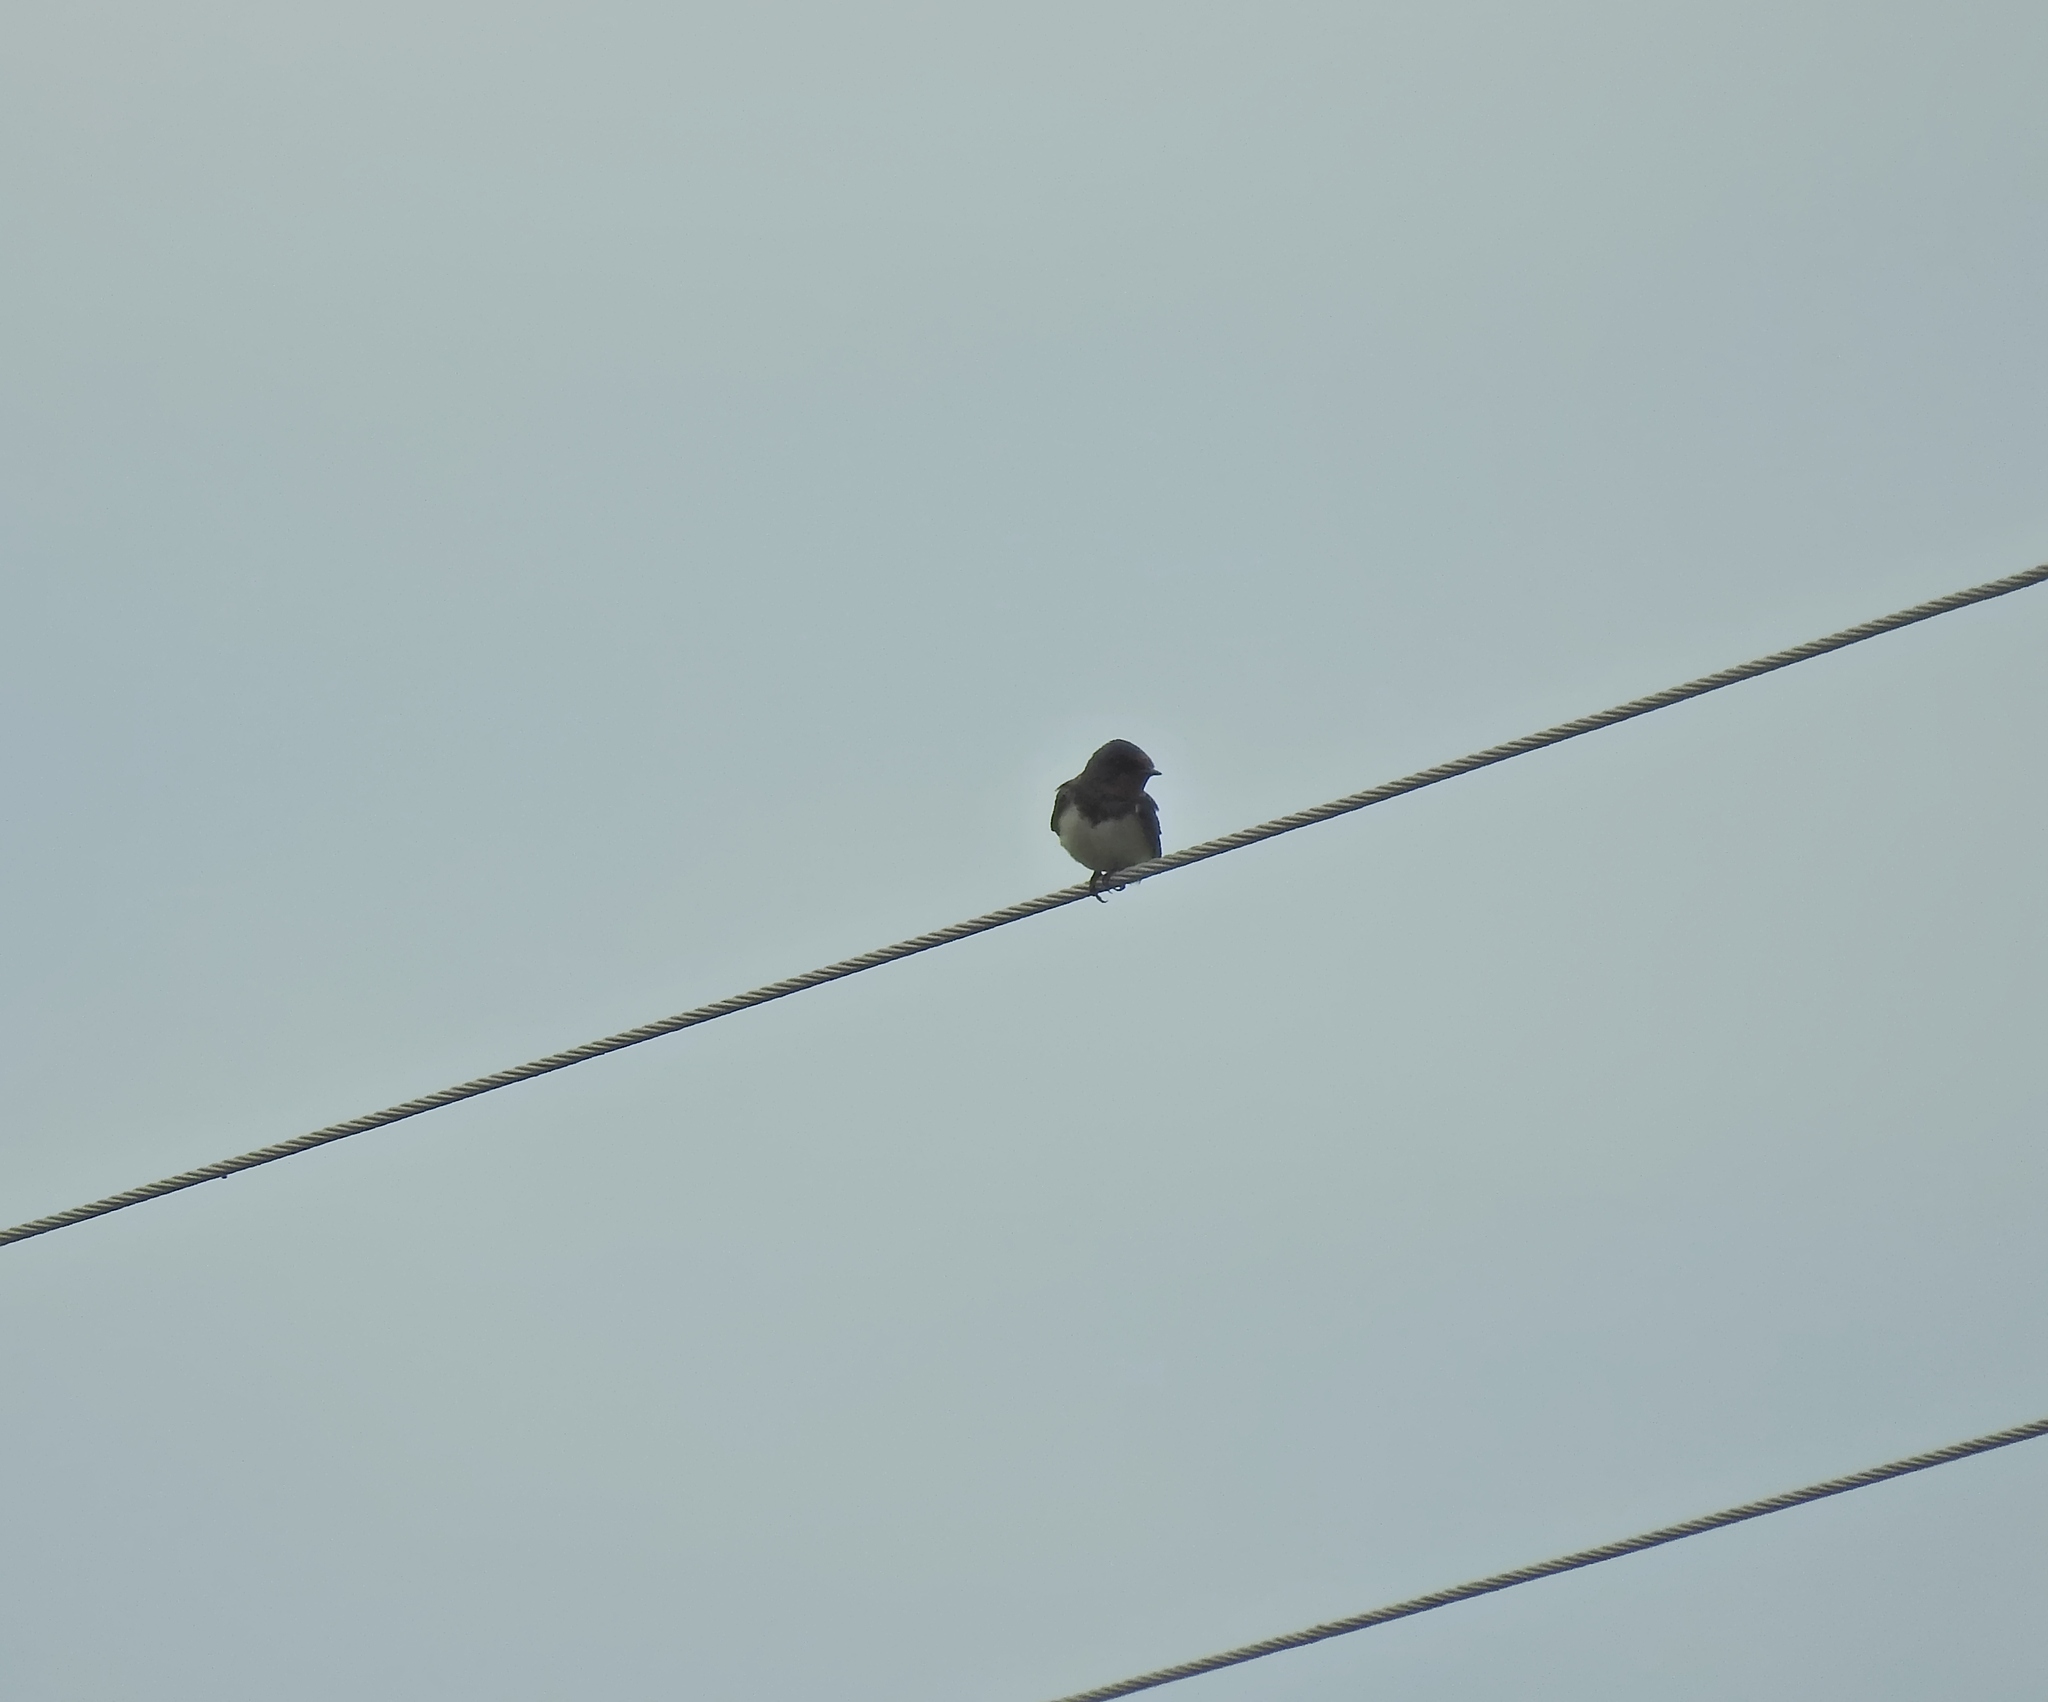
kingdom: Animalia
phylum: Chordata
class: Aves
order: Passeriformes
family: Hirundinidae
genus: Hirundo
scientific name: Hirundo rustica
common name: Barn swallow
